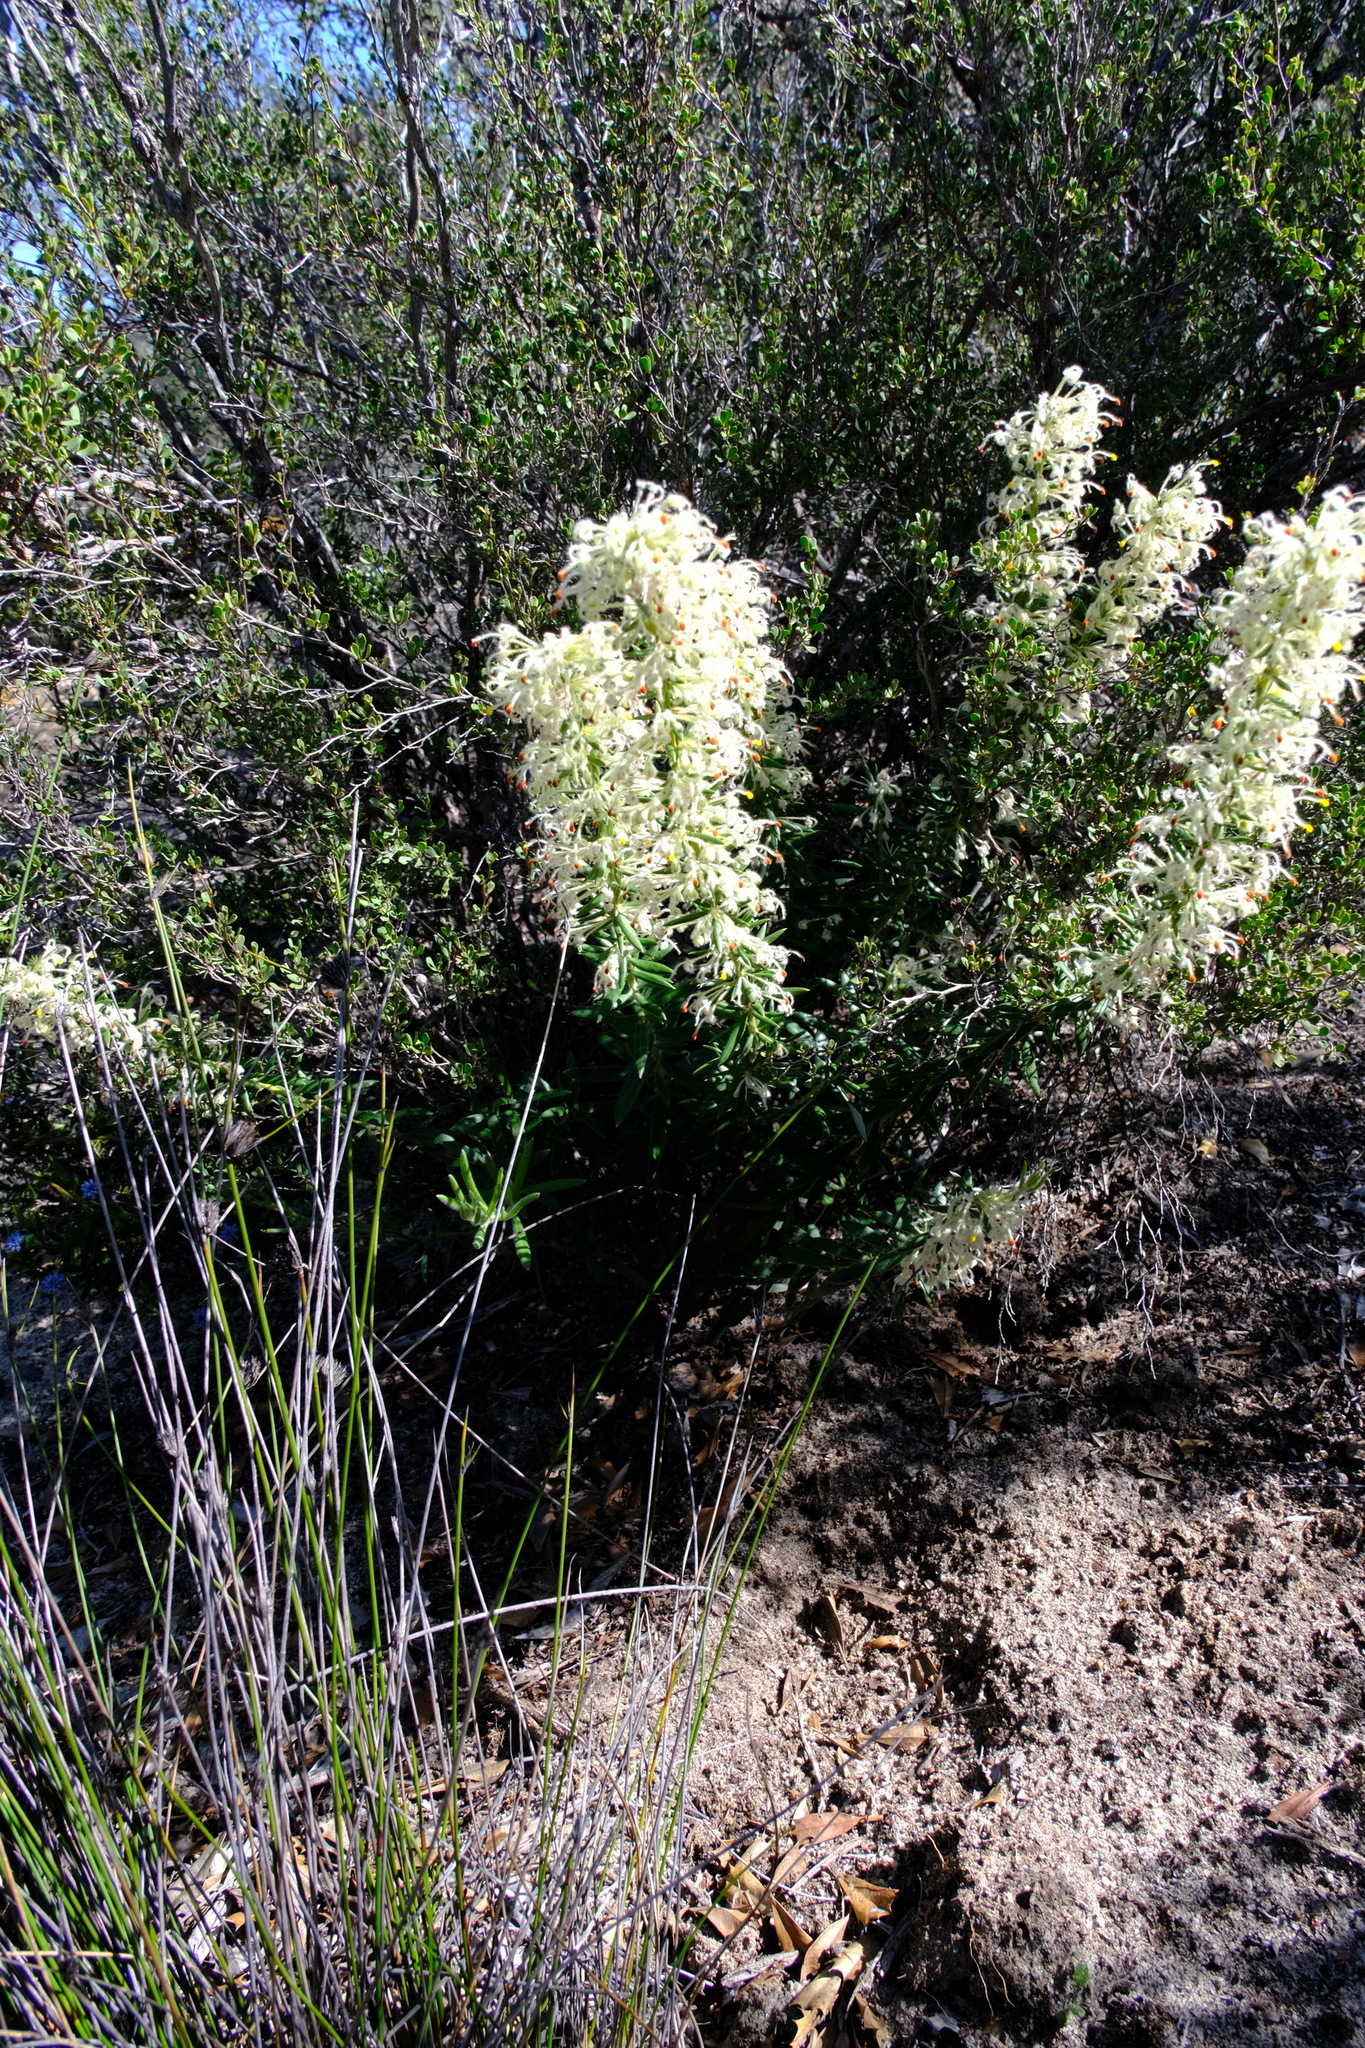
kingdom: Plantae
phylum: Tracheophyta
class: Magnoliopsida
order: Proteales
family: Proteaceae
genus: Grevillea
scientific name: Grevillea uncinulata
